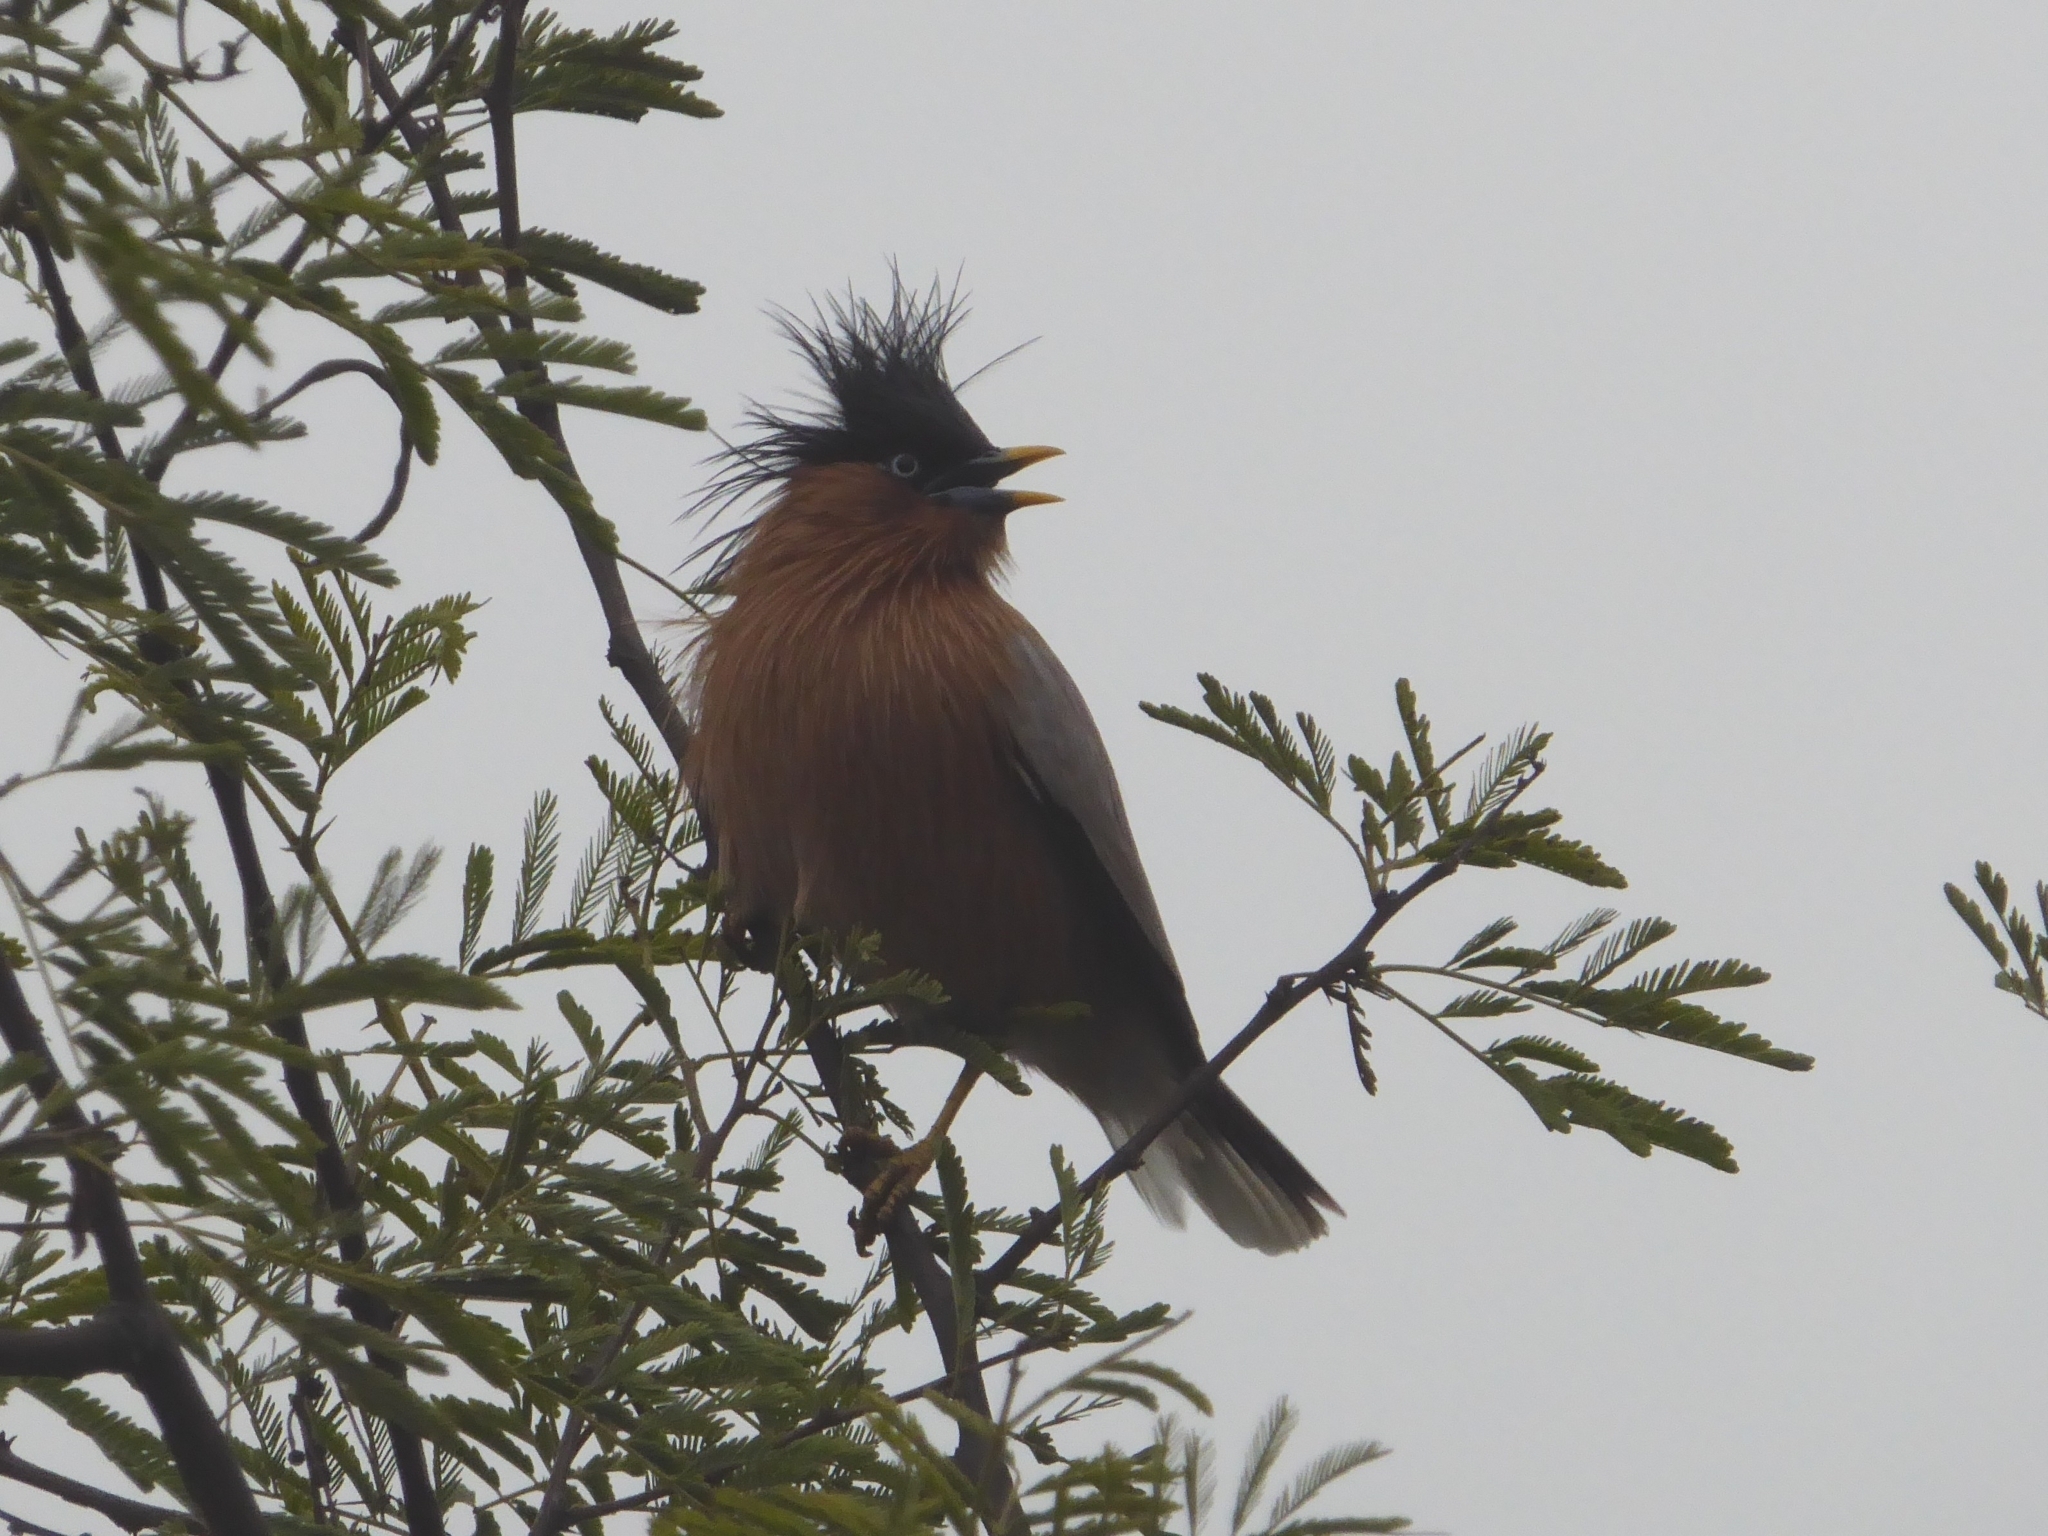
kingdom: Animalia
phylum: Chordata
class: Aves
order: Passeriformes
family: Sturnidae
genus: Sturnia
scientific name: Sturnia pagodarum
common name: Brahminy starling
